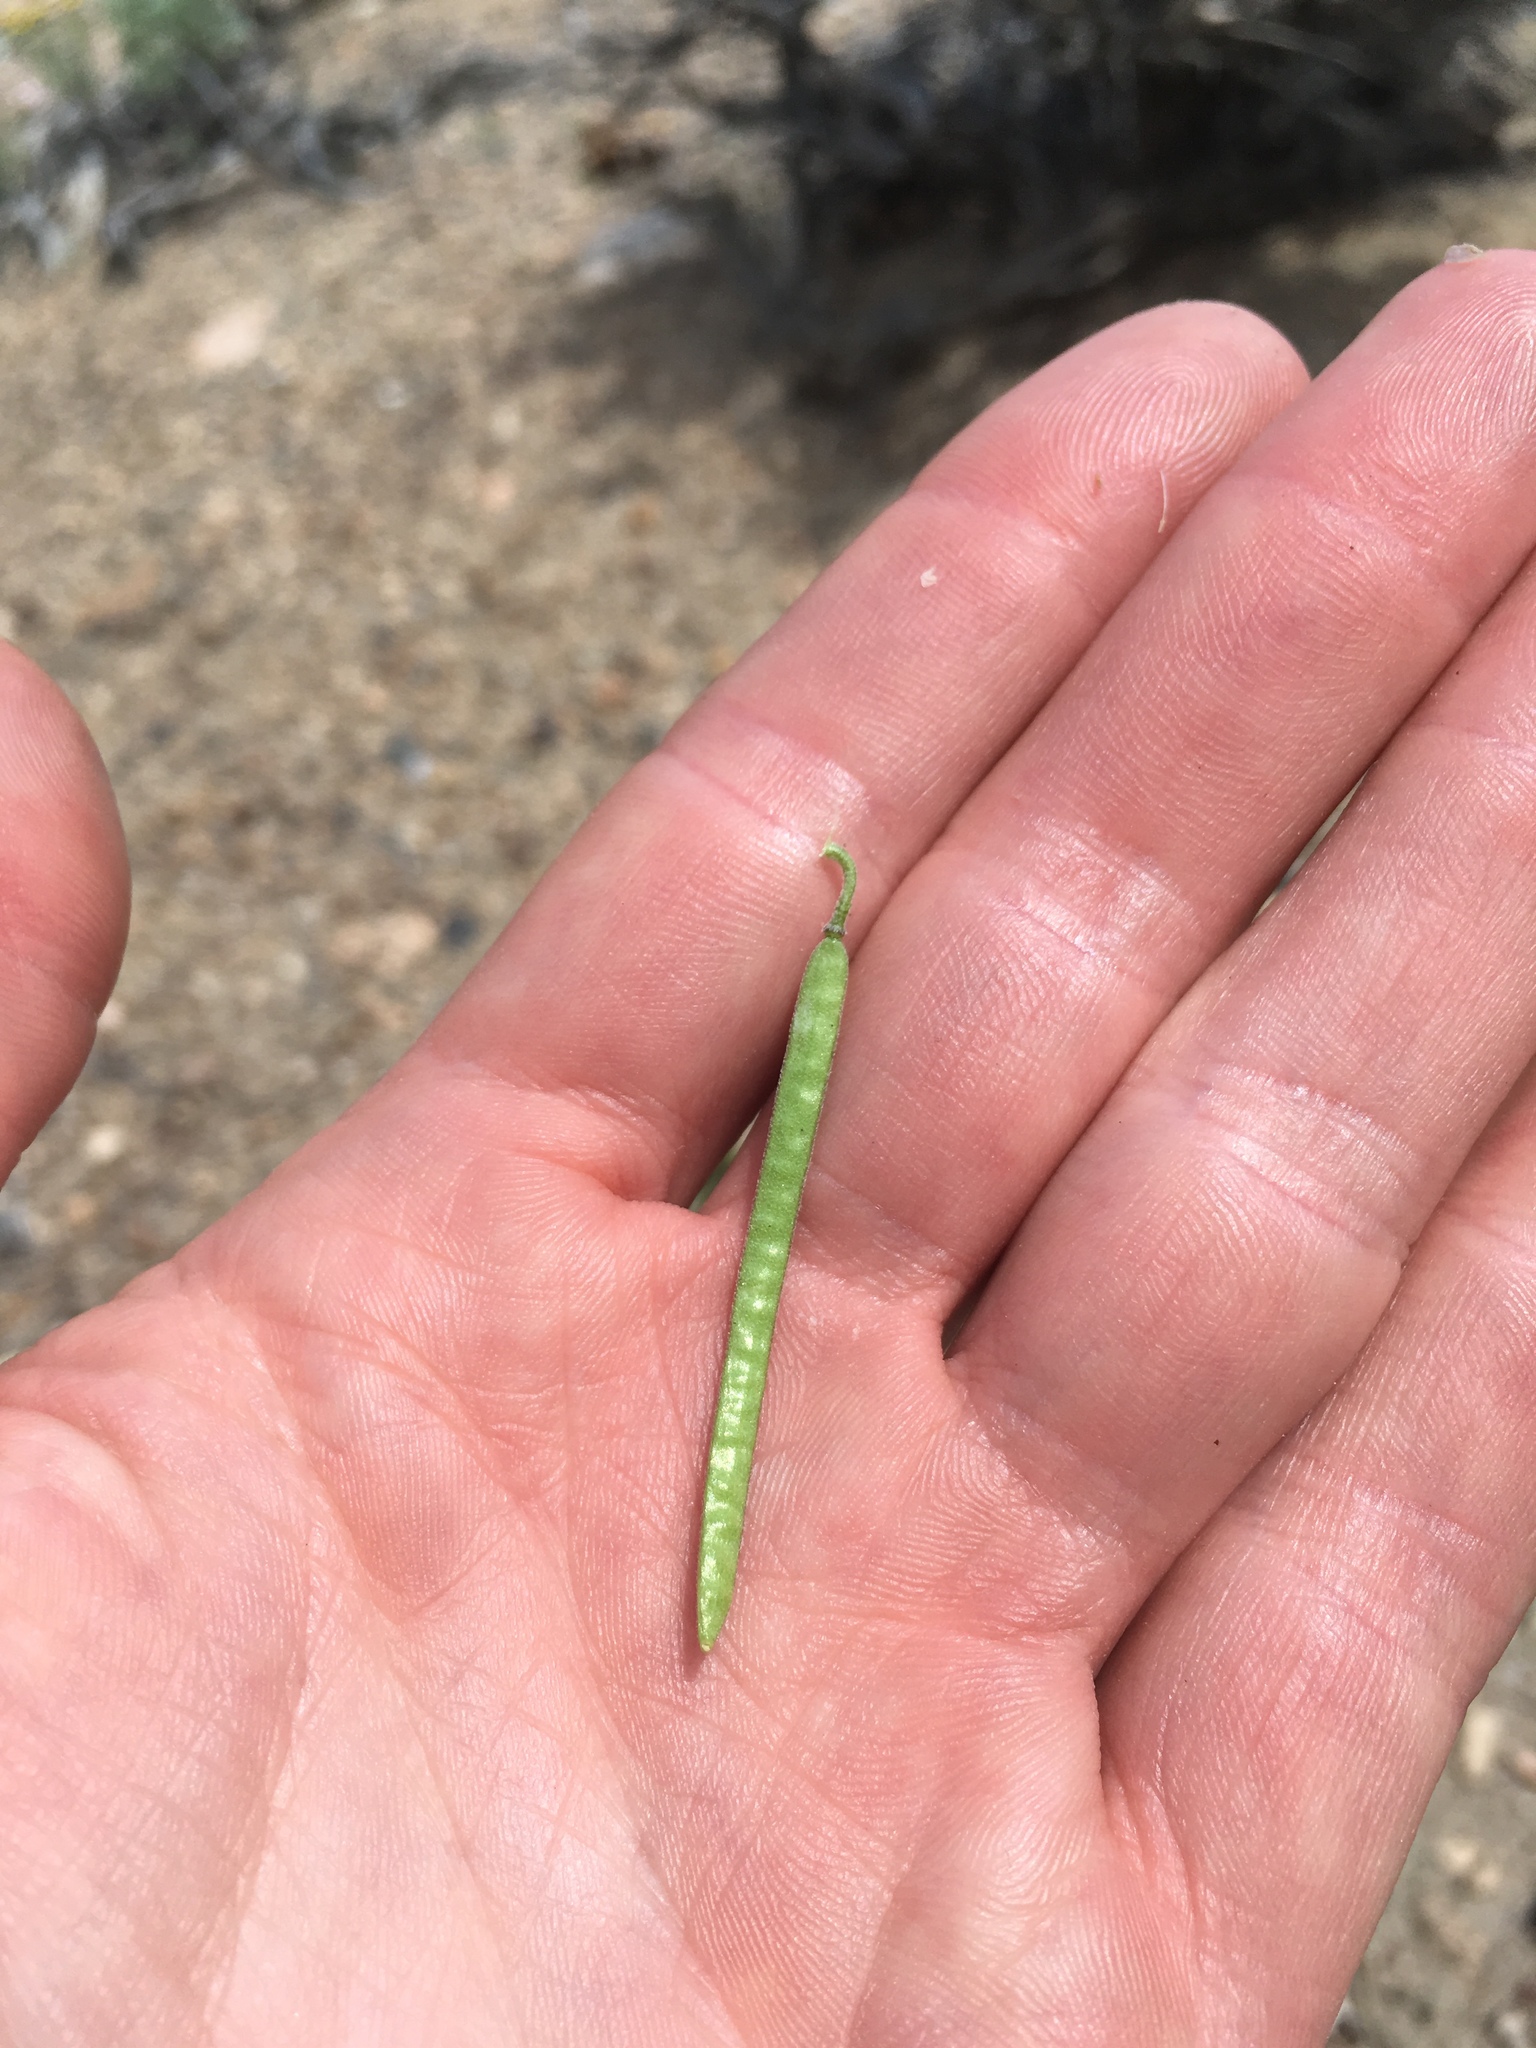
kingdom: Plantae
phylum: Tracheophyta
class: Magnoliopsida
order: Brassicales
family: Brassicaceae
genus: Boechera
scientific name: Boechera puberula
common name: Puberulent rockcress
